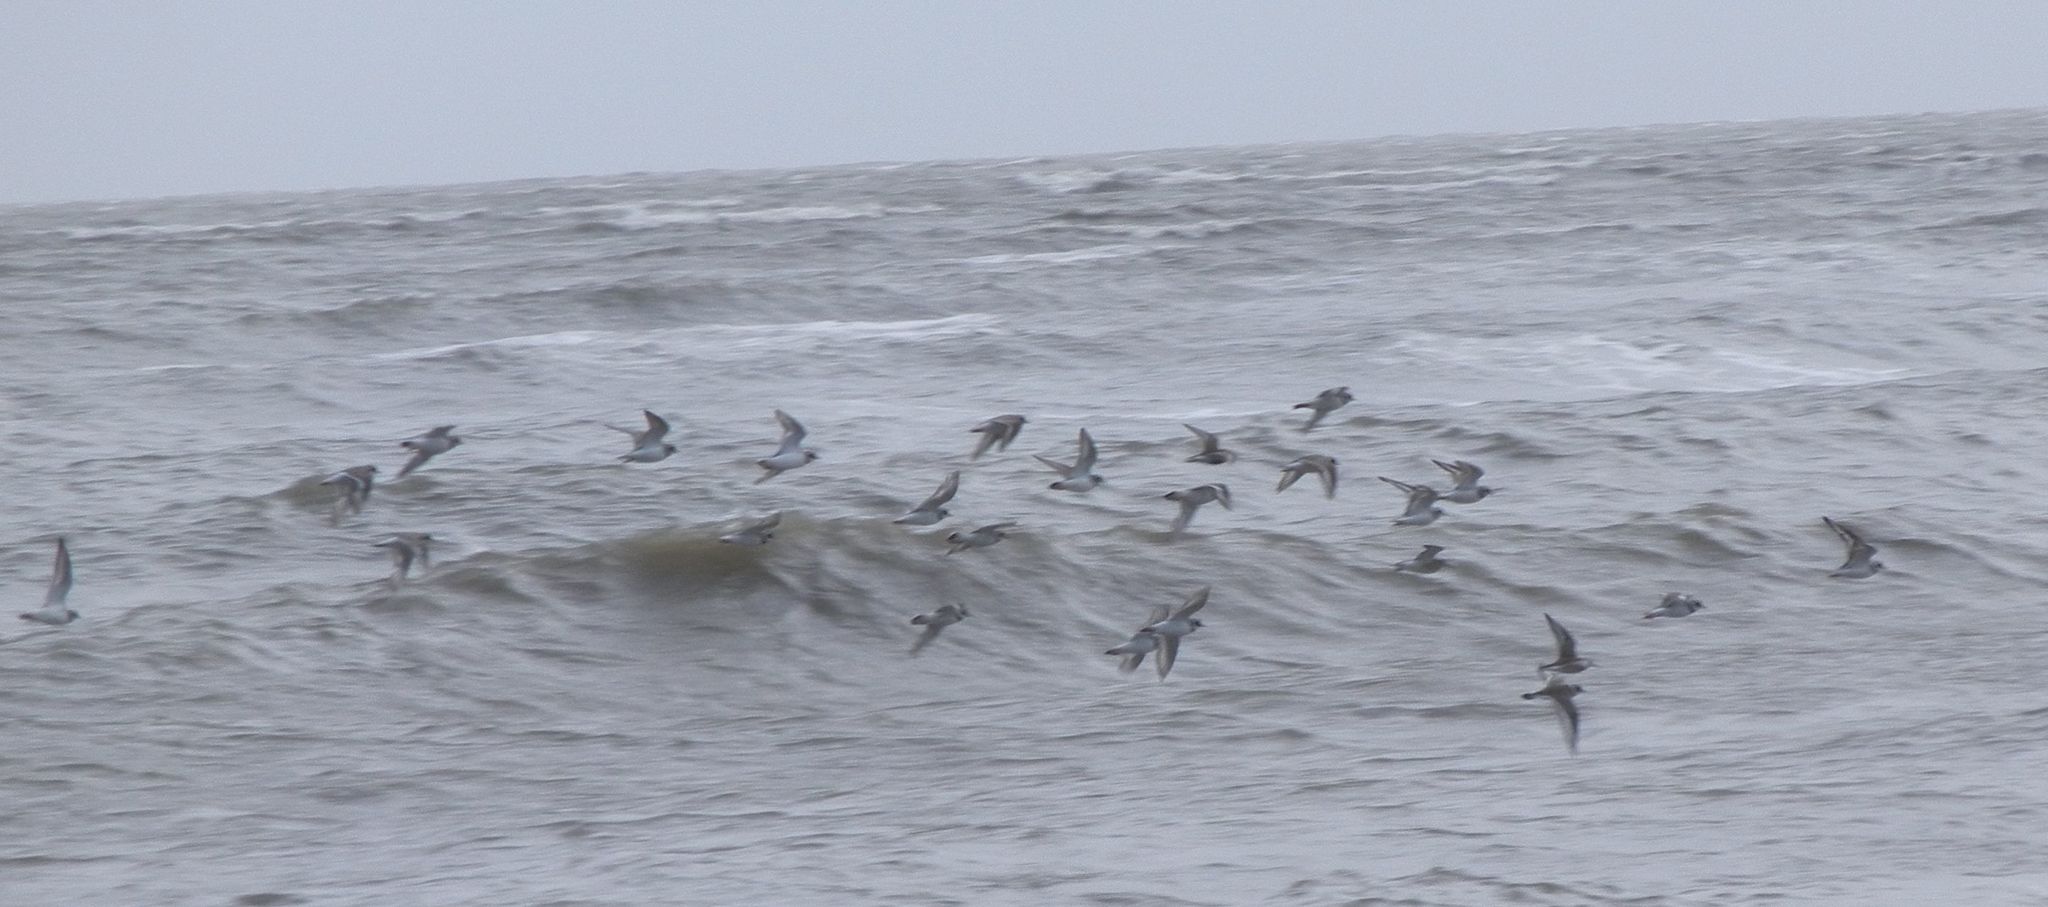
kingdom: Animalia
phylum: Chordata
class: Aves
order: Charadriiformes
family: Charadriidae
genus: Charadrius
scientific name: Charadrius hiaticula
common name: Common ringed plover
